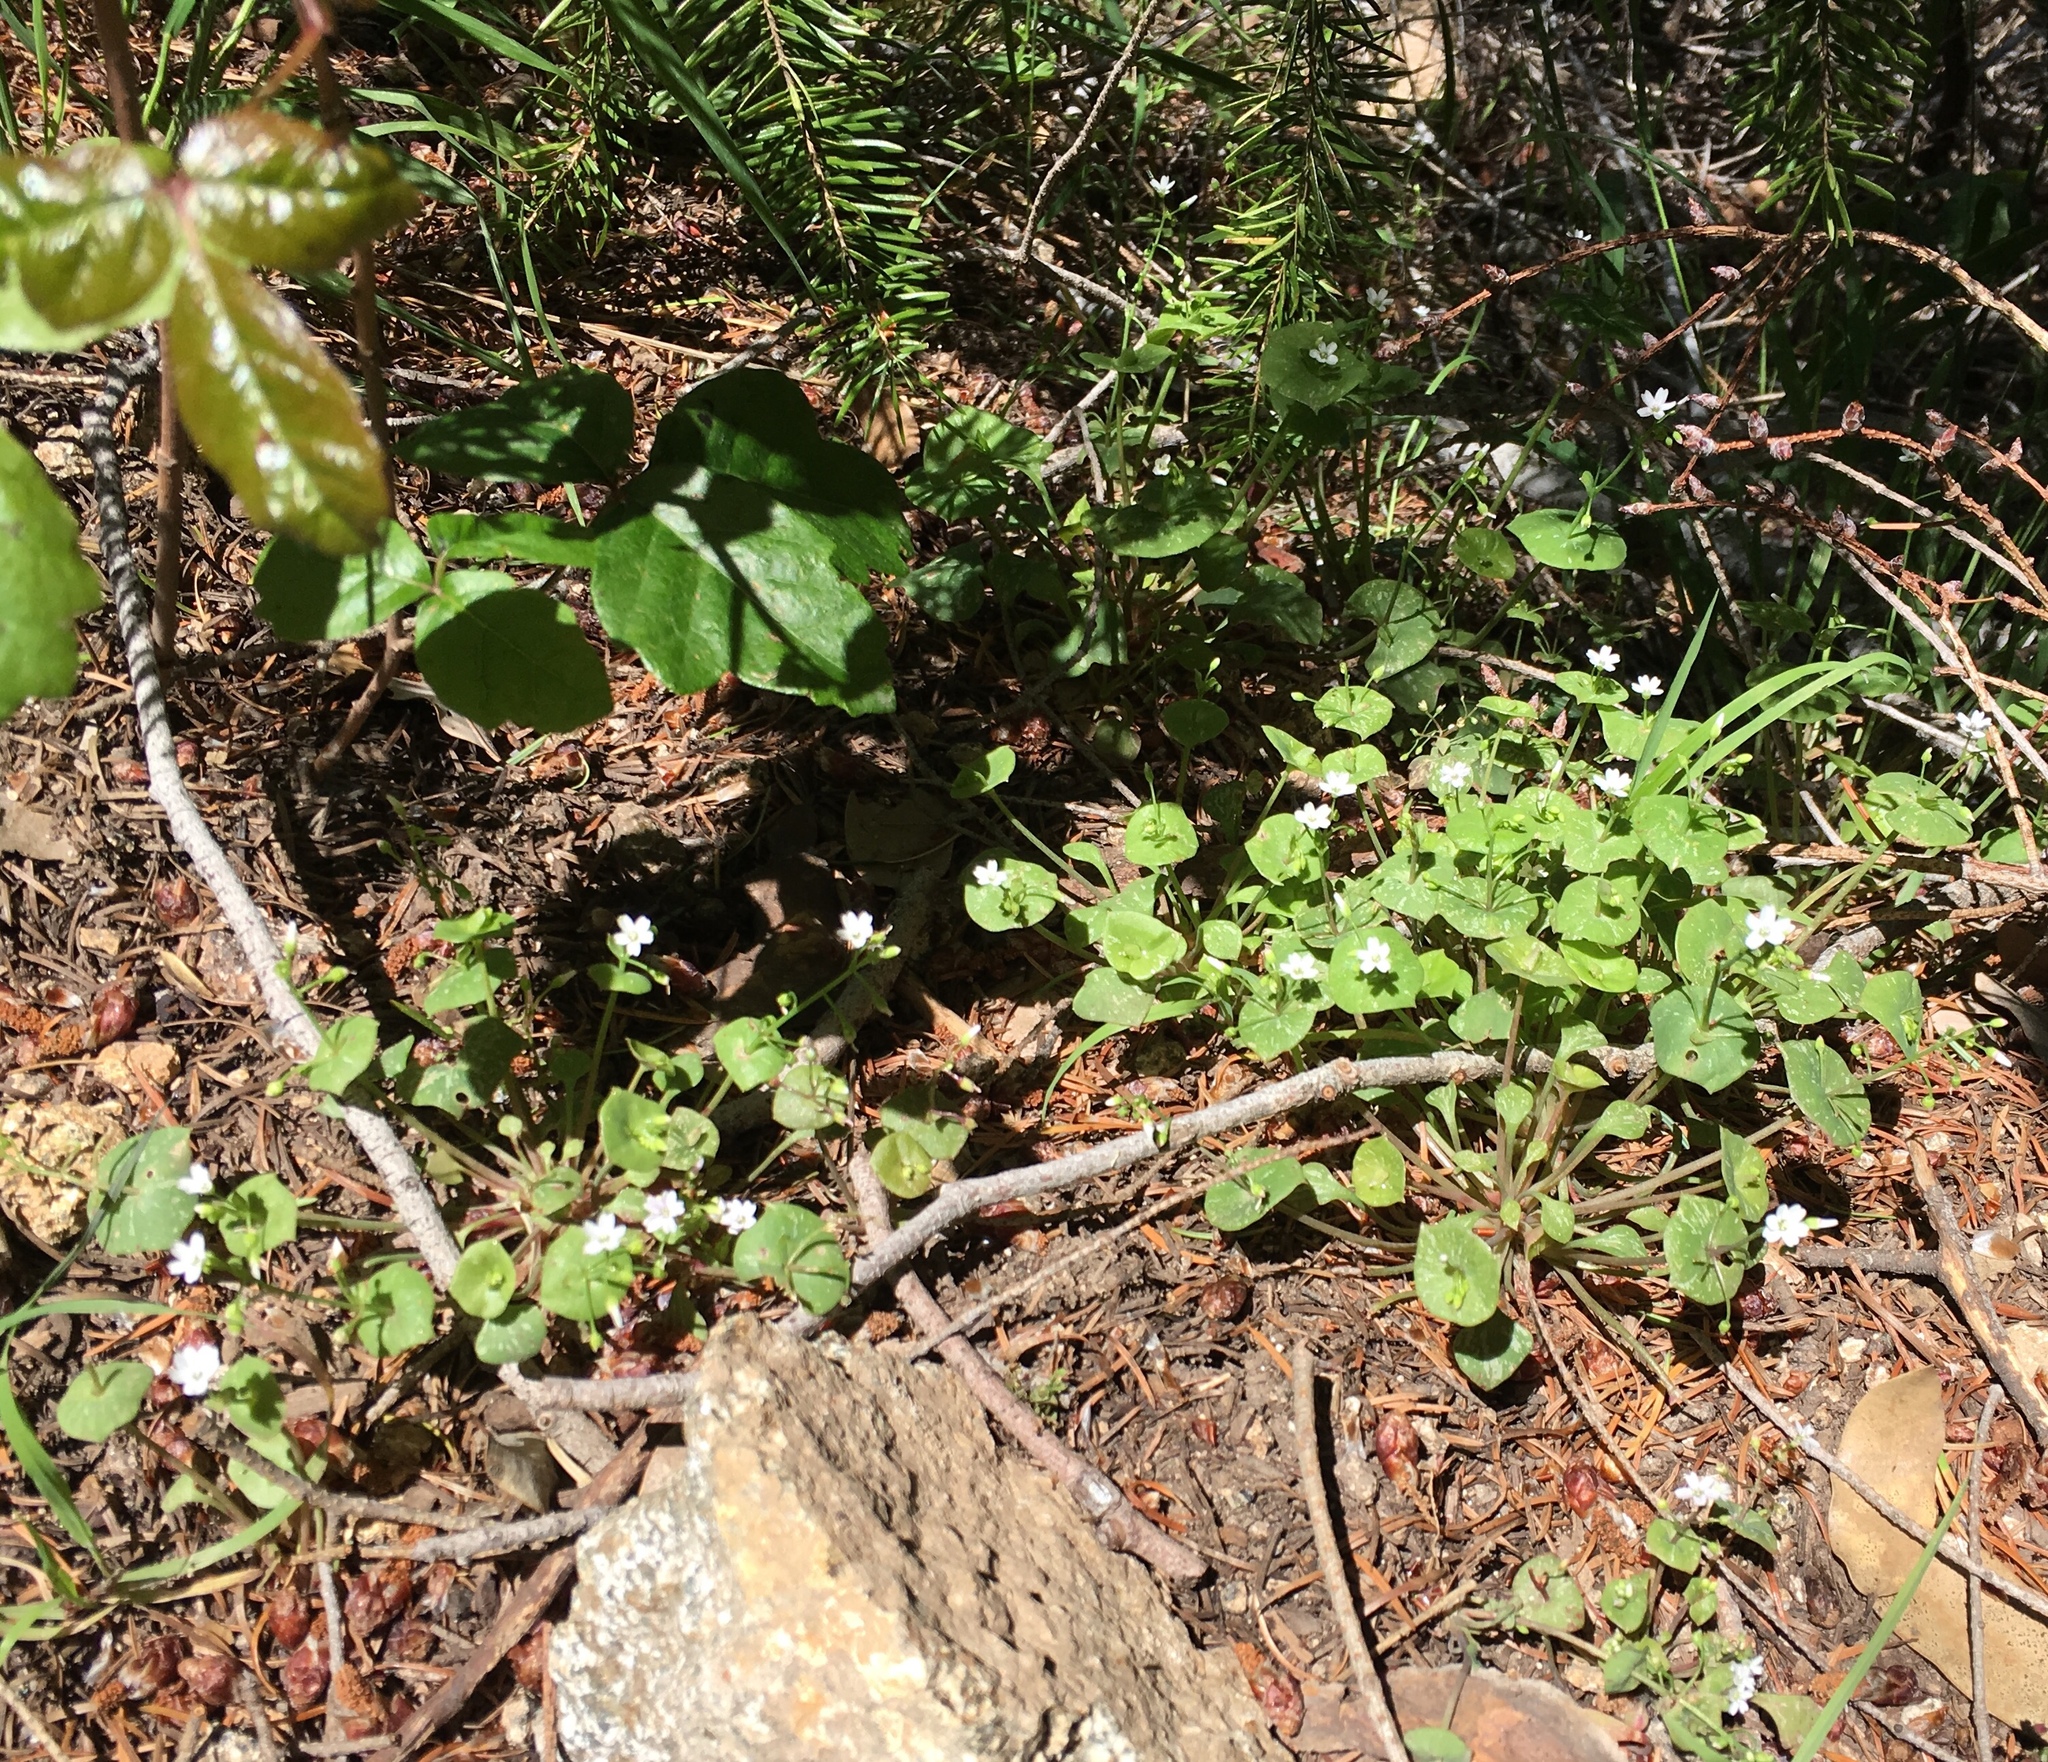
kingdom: Plantae
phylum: Tracheophyta
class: Magnoliopsida
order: Caryophyllales
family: Montiaceae
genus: Claytonia
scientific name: Claytonia perfoliata
